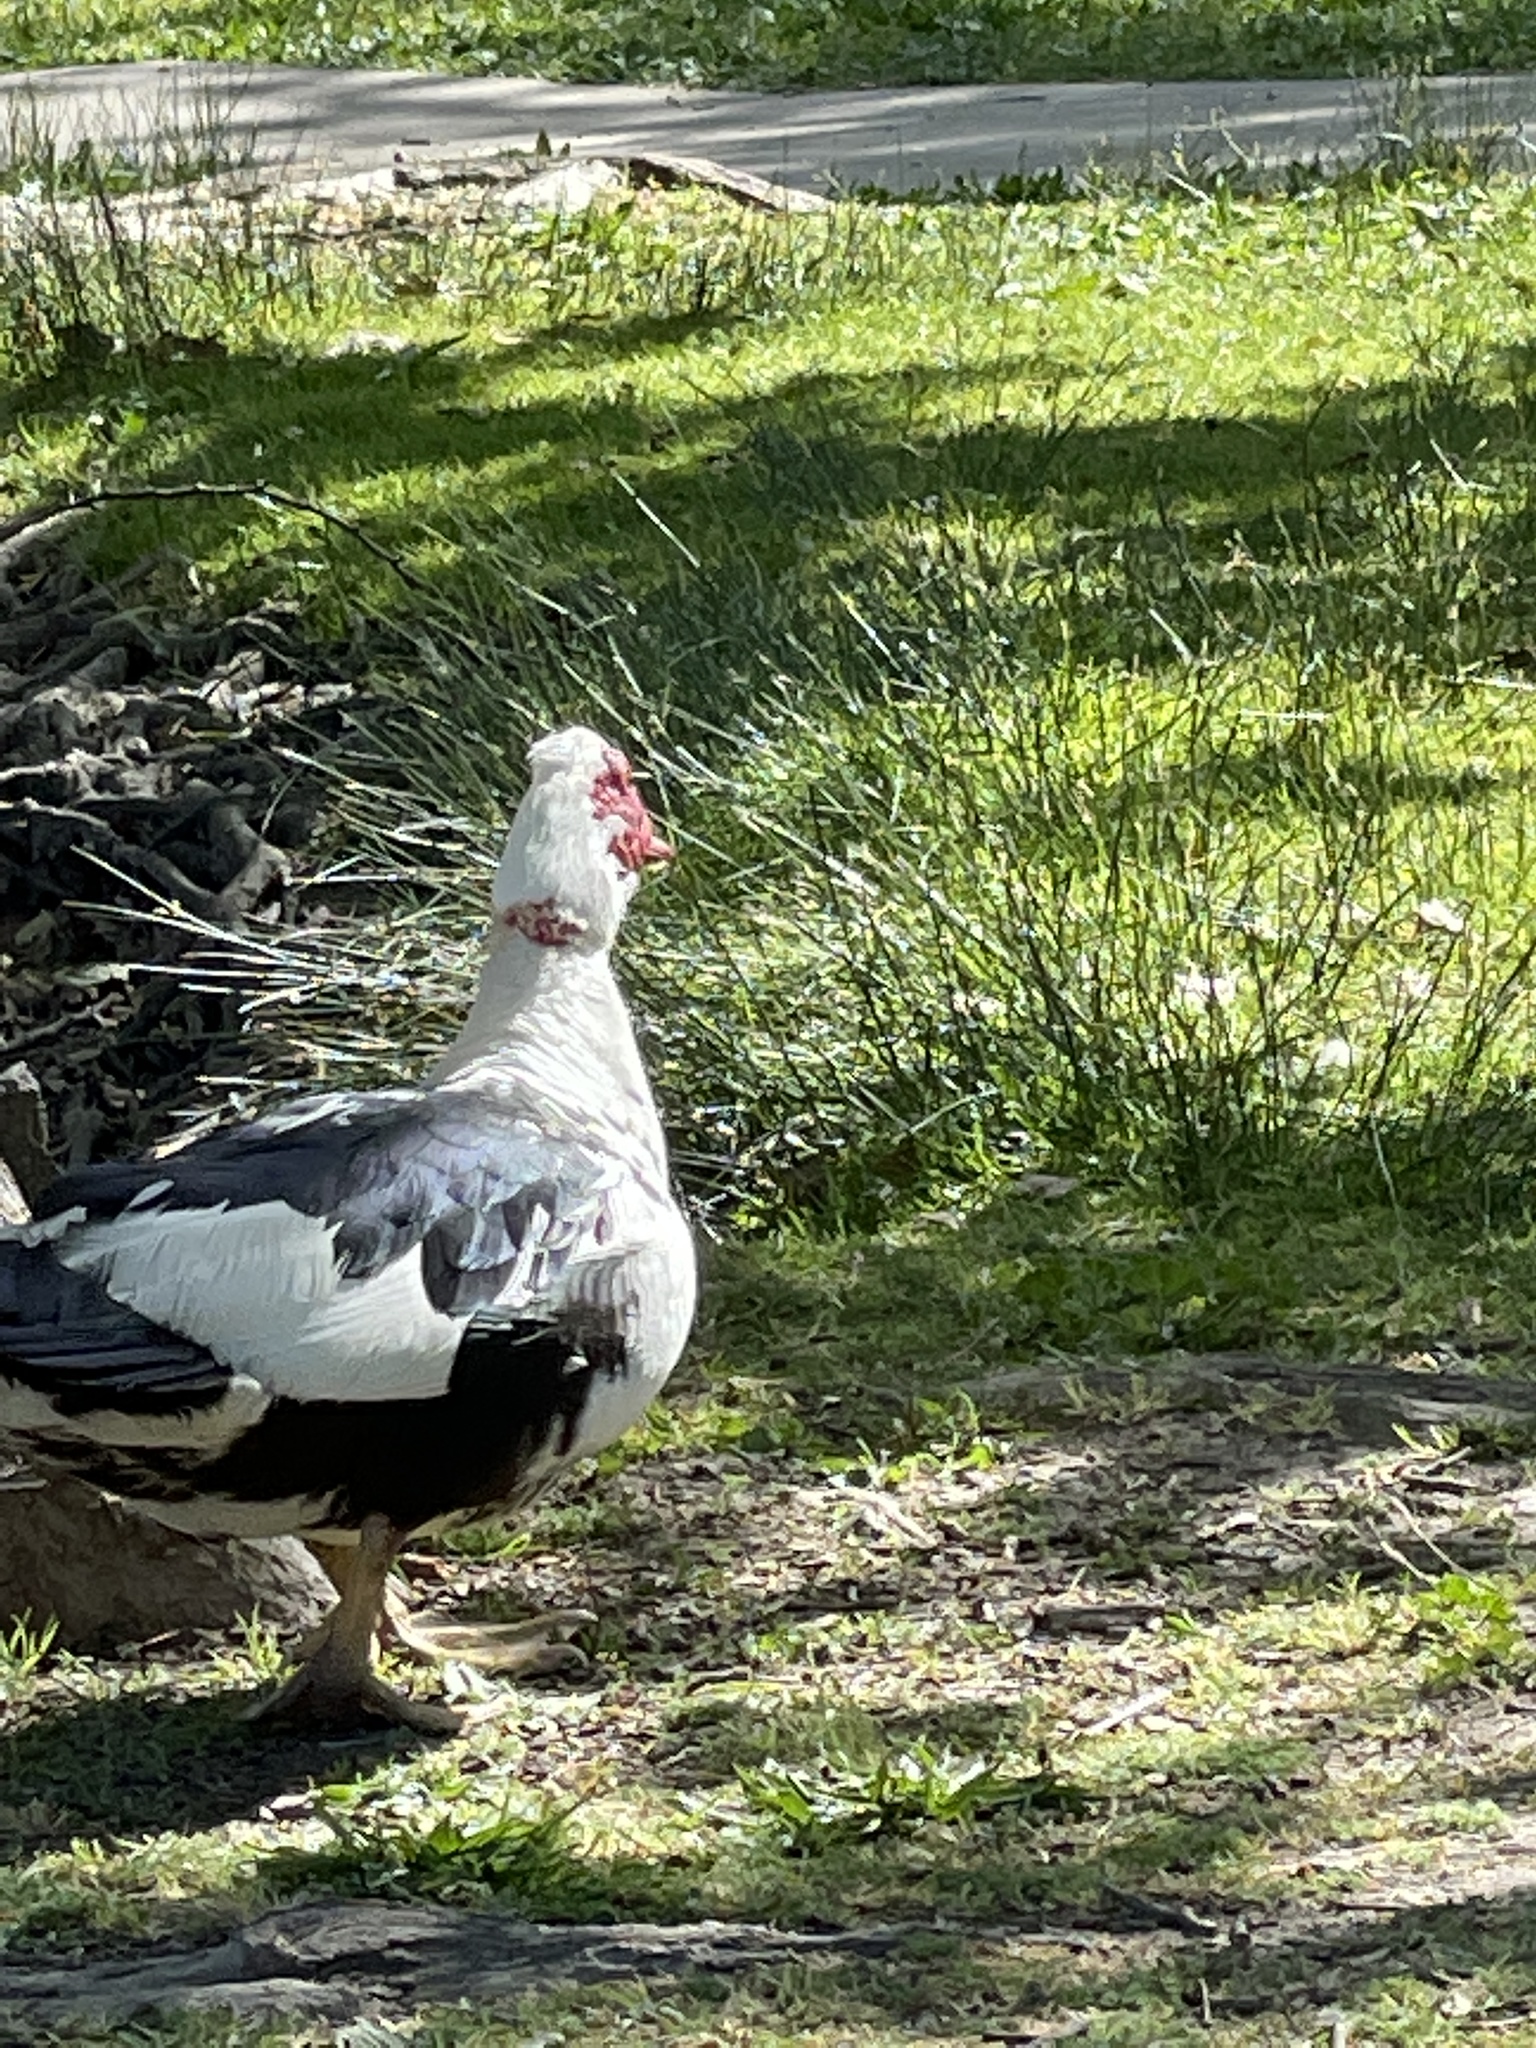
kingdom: Animalia
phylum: Chordata
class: Aves
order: Anseriformes
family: Anatidae
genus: Cairina
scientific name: Cairina moschata
